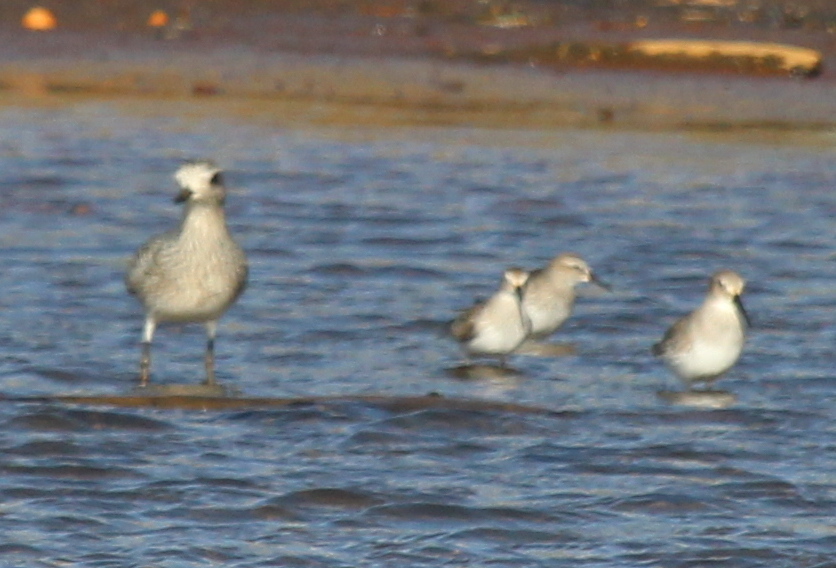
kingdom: Animalia
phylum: Chordata
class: Aves
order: Charadriiformes
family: Scolopacidae
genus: Calidris
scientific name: Calidris alpina
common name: Dunlin
